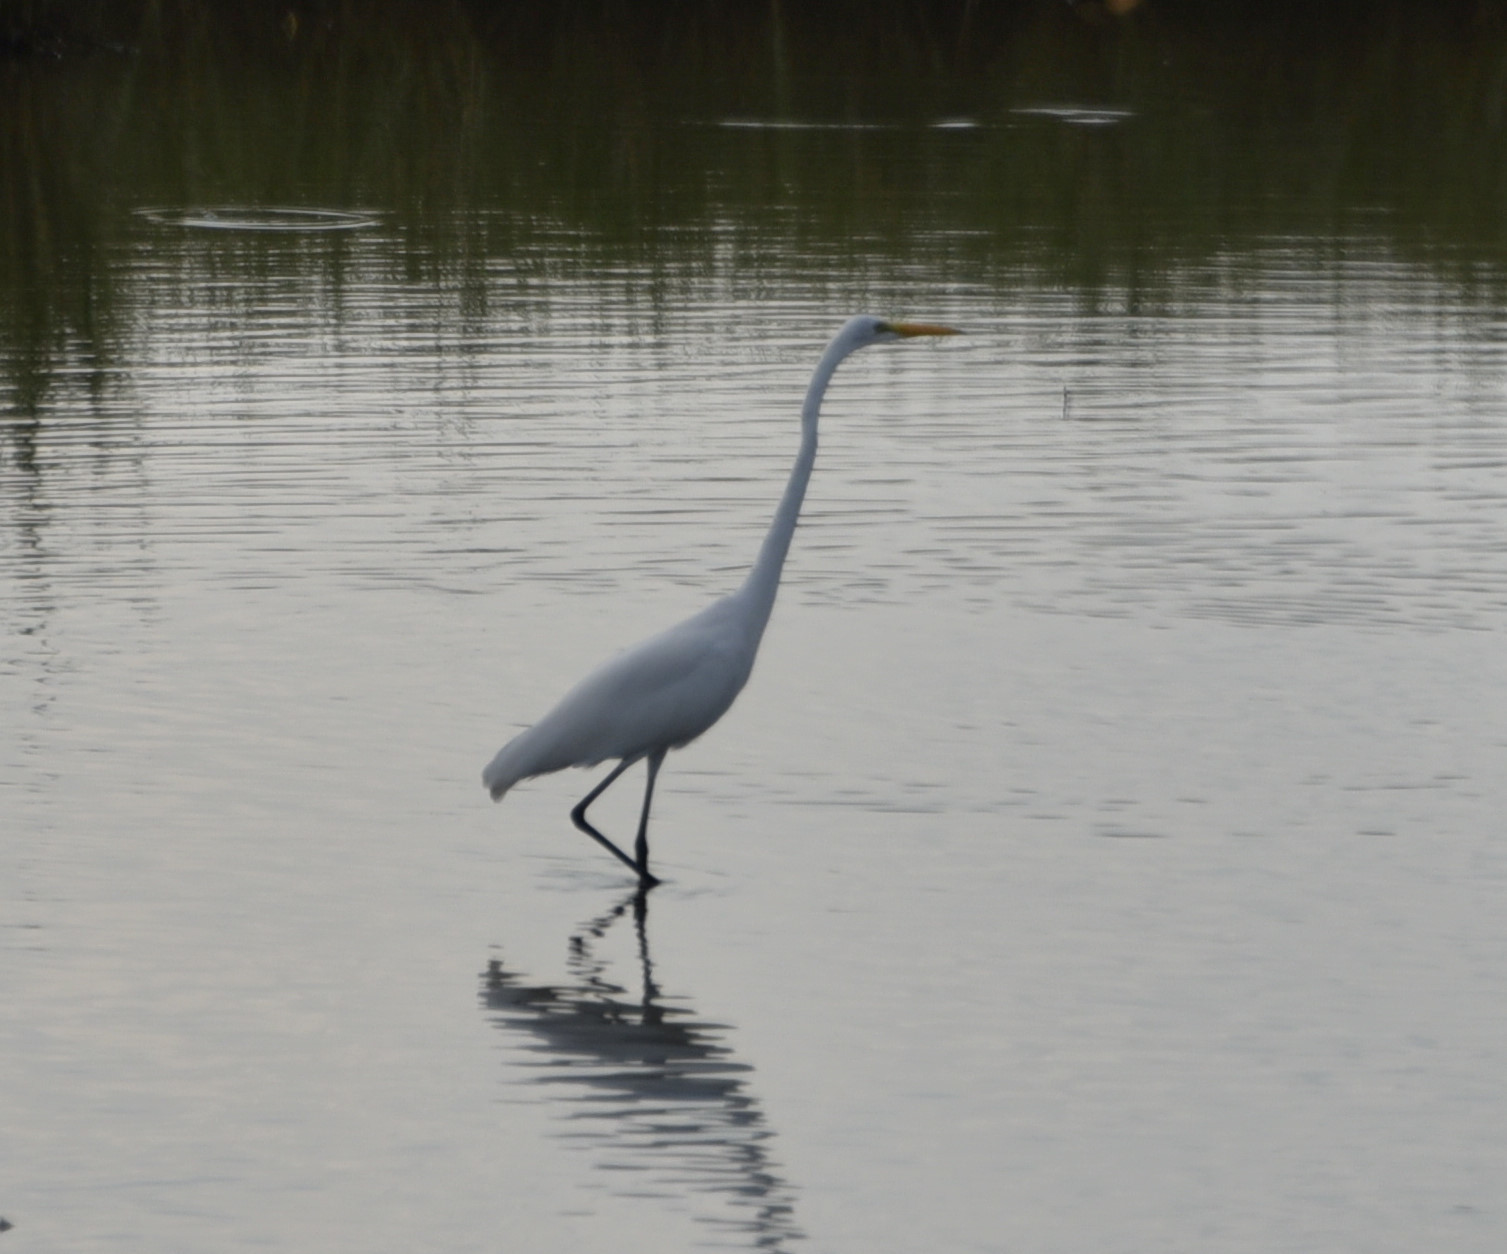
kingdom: Animalia
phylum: Chordata
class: Aves
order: Pelecaniformes
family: Ardeidae
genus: Ardea
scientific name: Ardea alba
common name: Great egret
